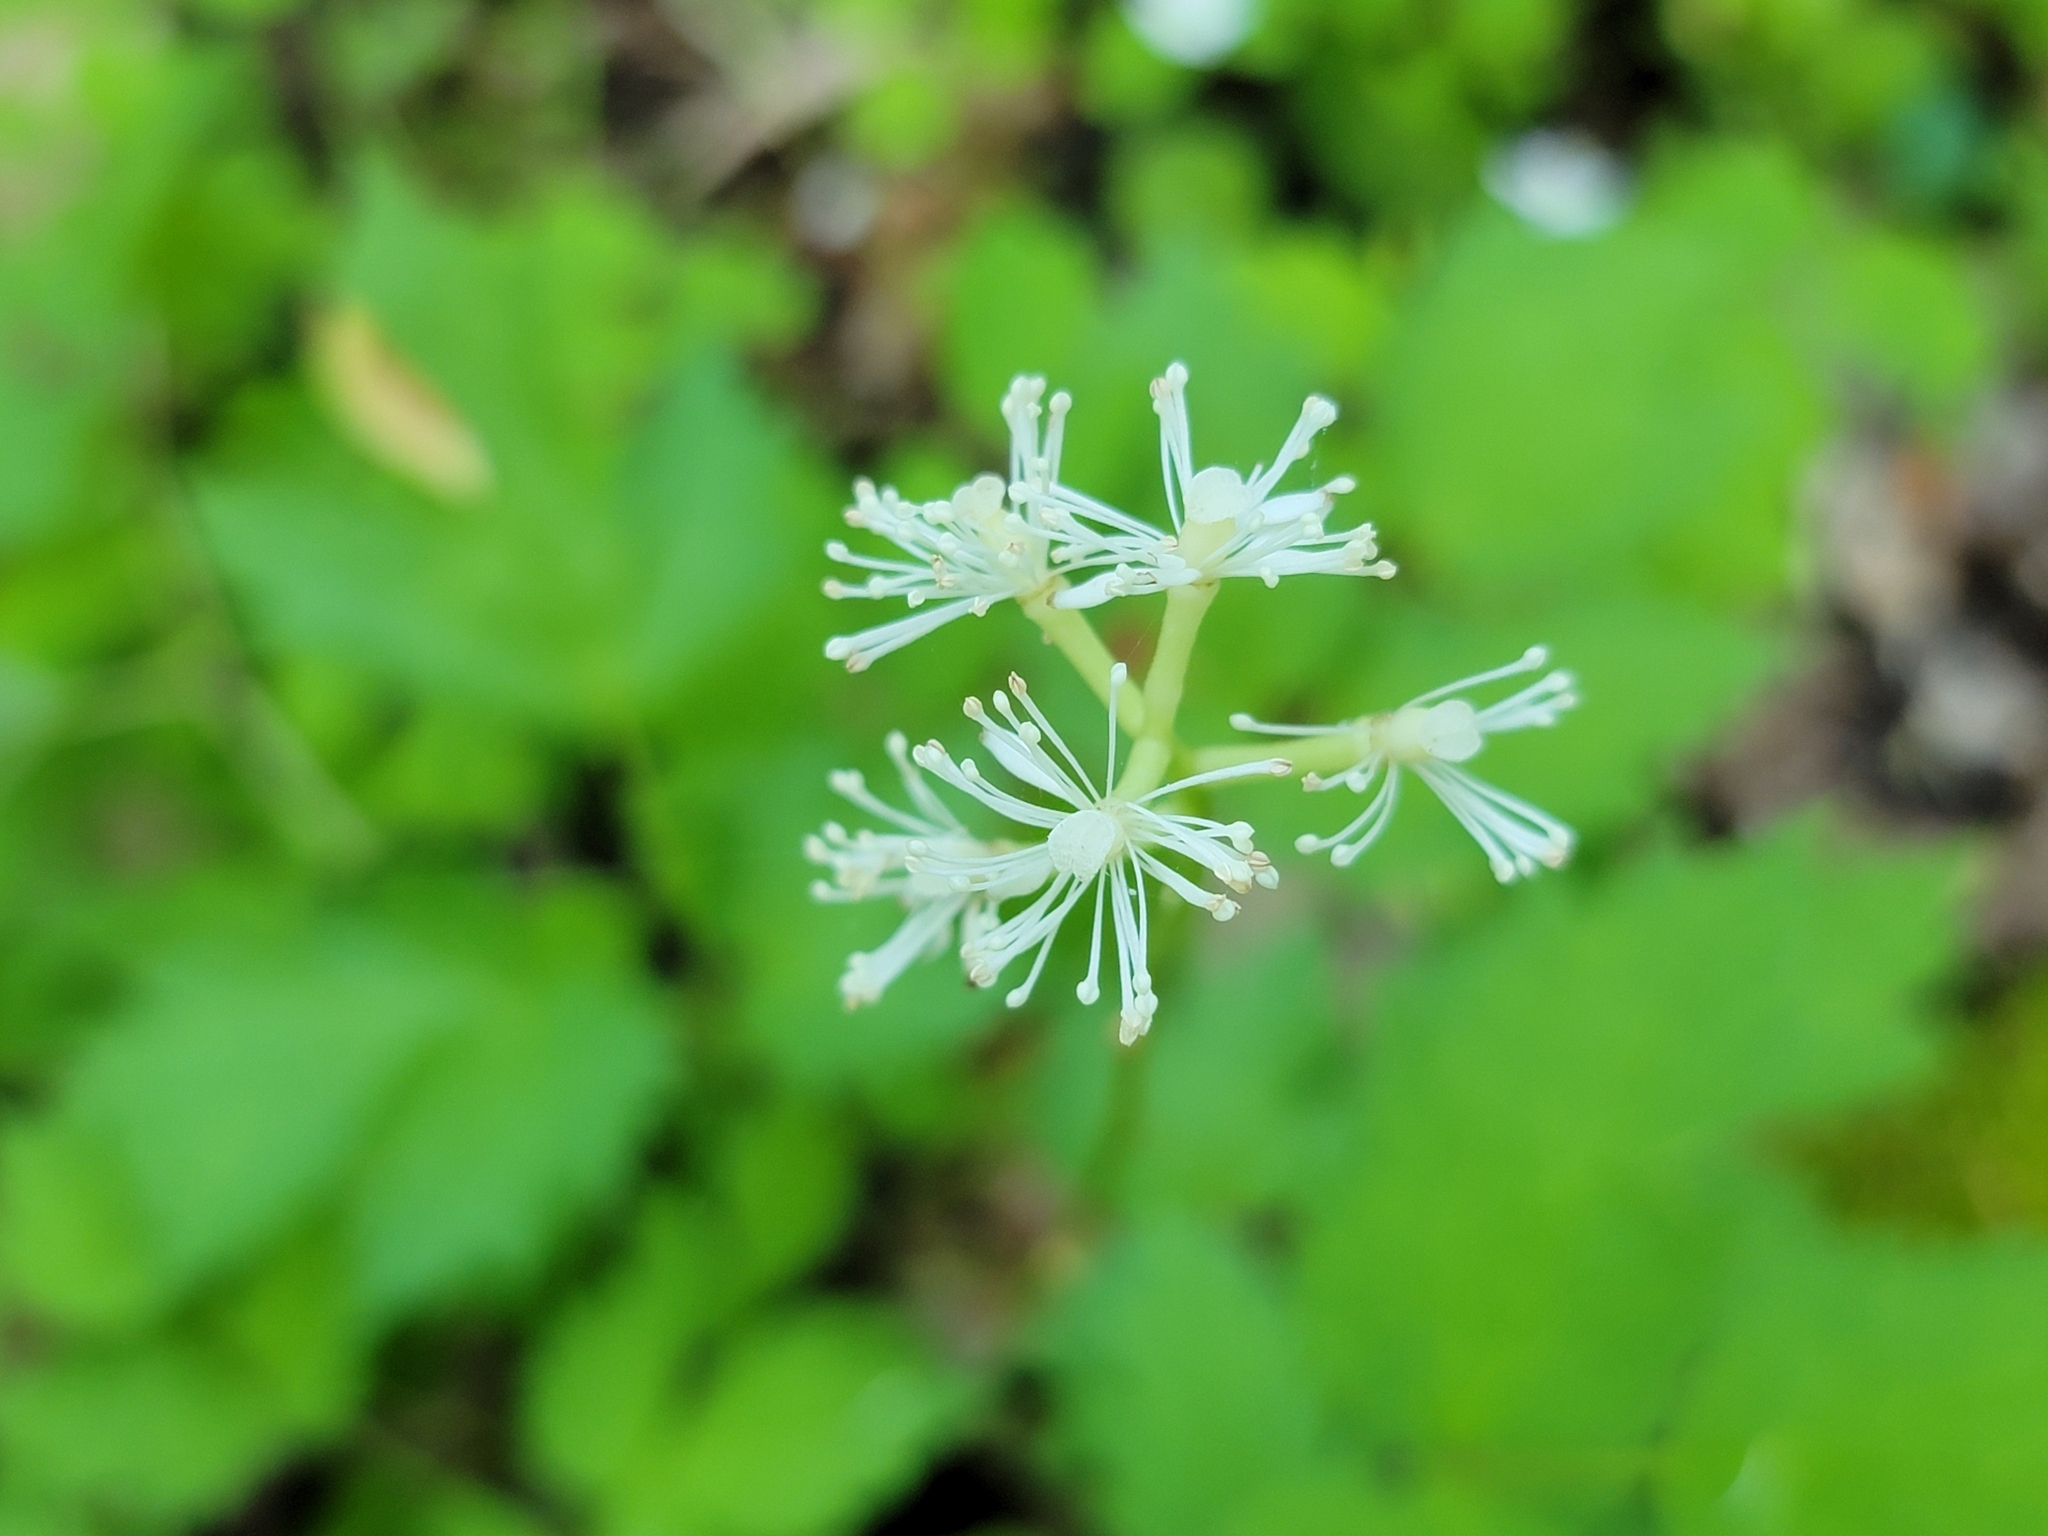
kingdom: Plantae
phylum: Tracheophyta
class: Magnoliopsida
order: Ranunculales
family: Ranunculaceae
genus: Actaea
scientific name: Actaea pachypoda
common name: Doll's-eyes
